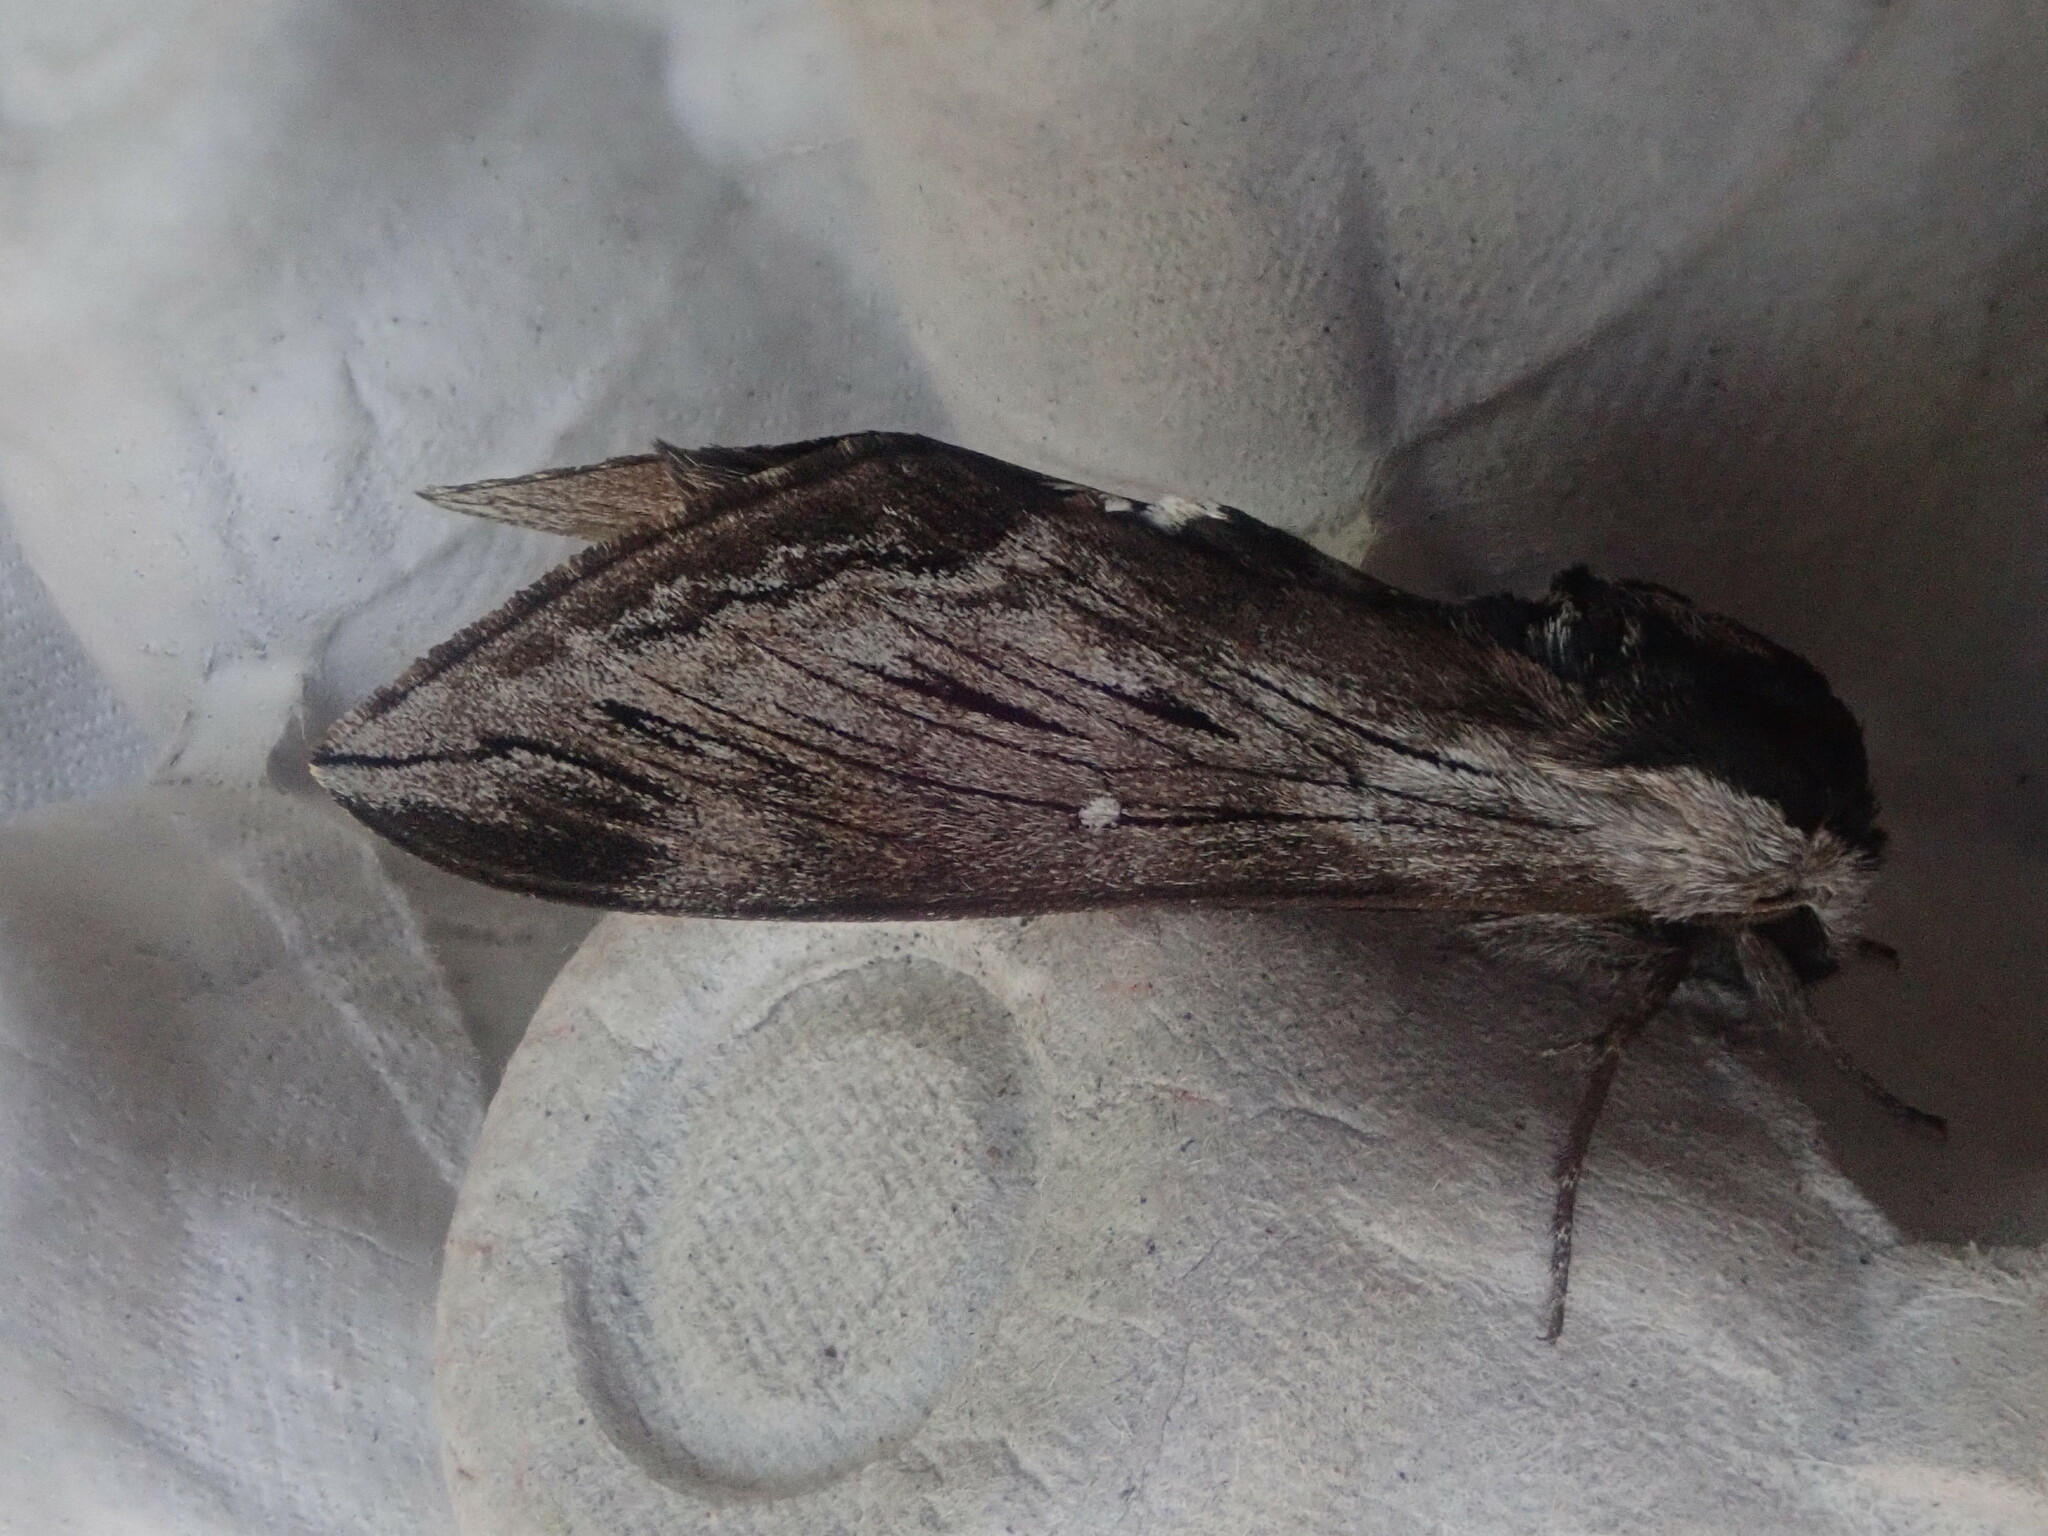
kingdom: Animalia
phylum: Arthropoda
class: Insecta
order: Lepidoptera
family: Sphingidae
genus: Sphinx
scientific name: Sphinx
